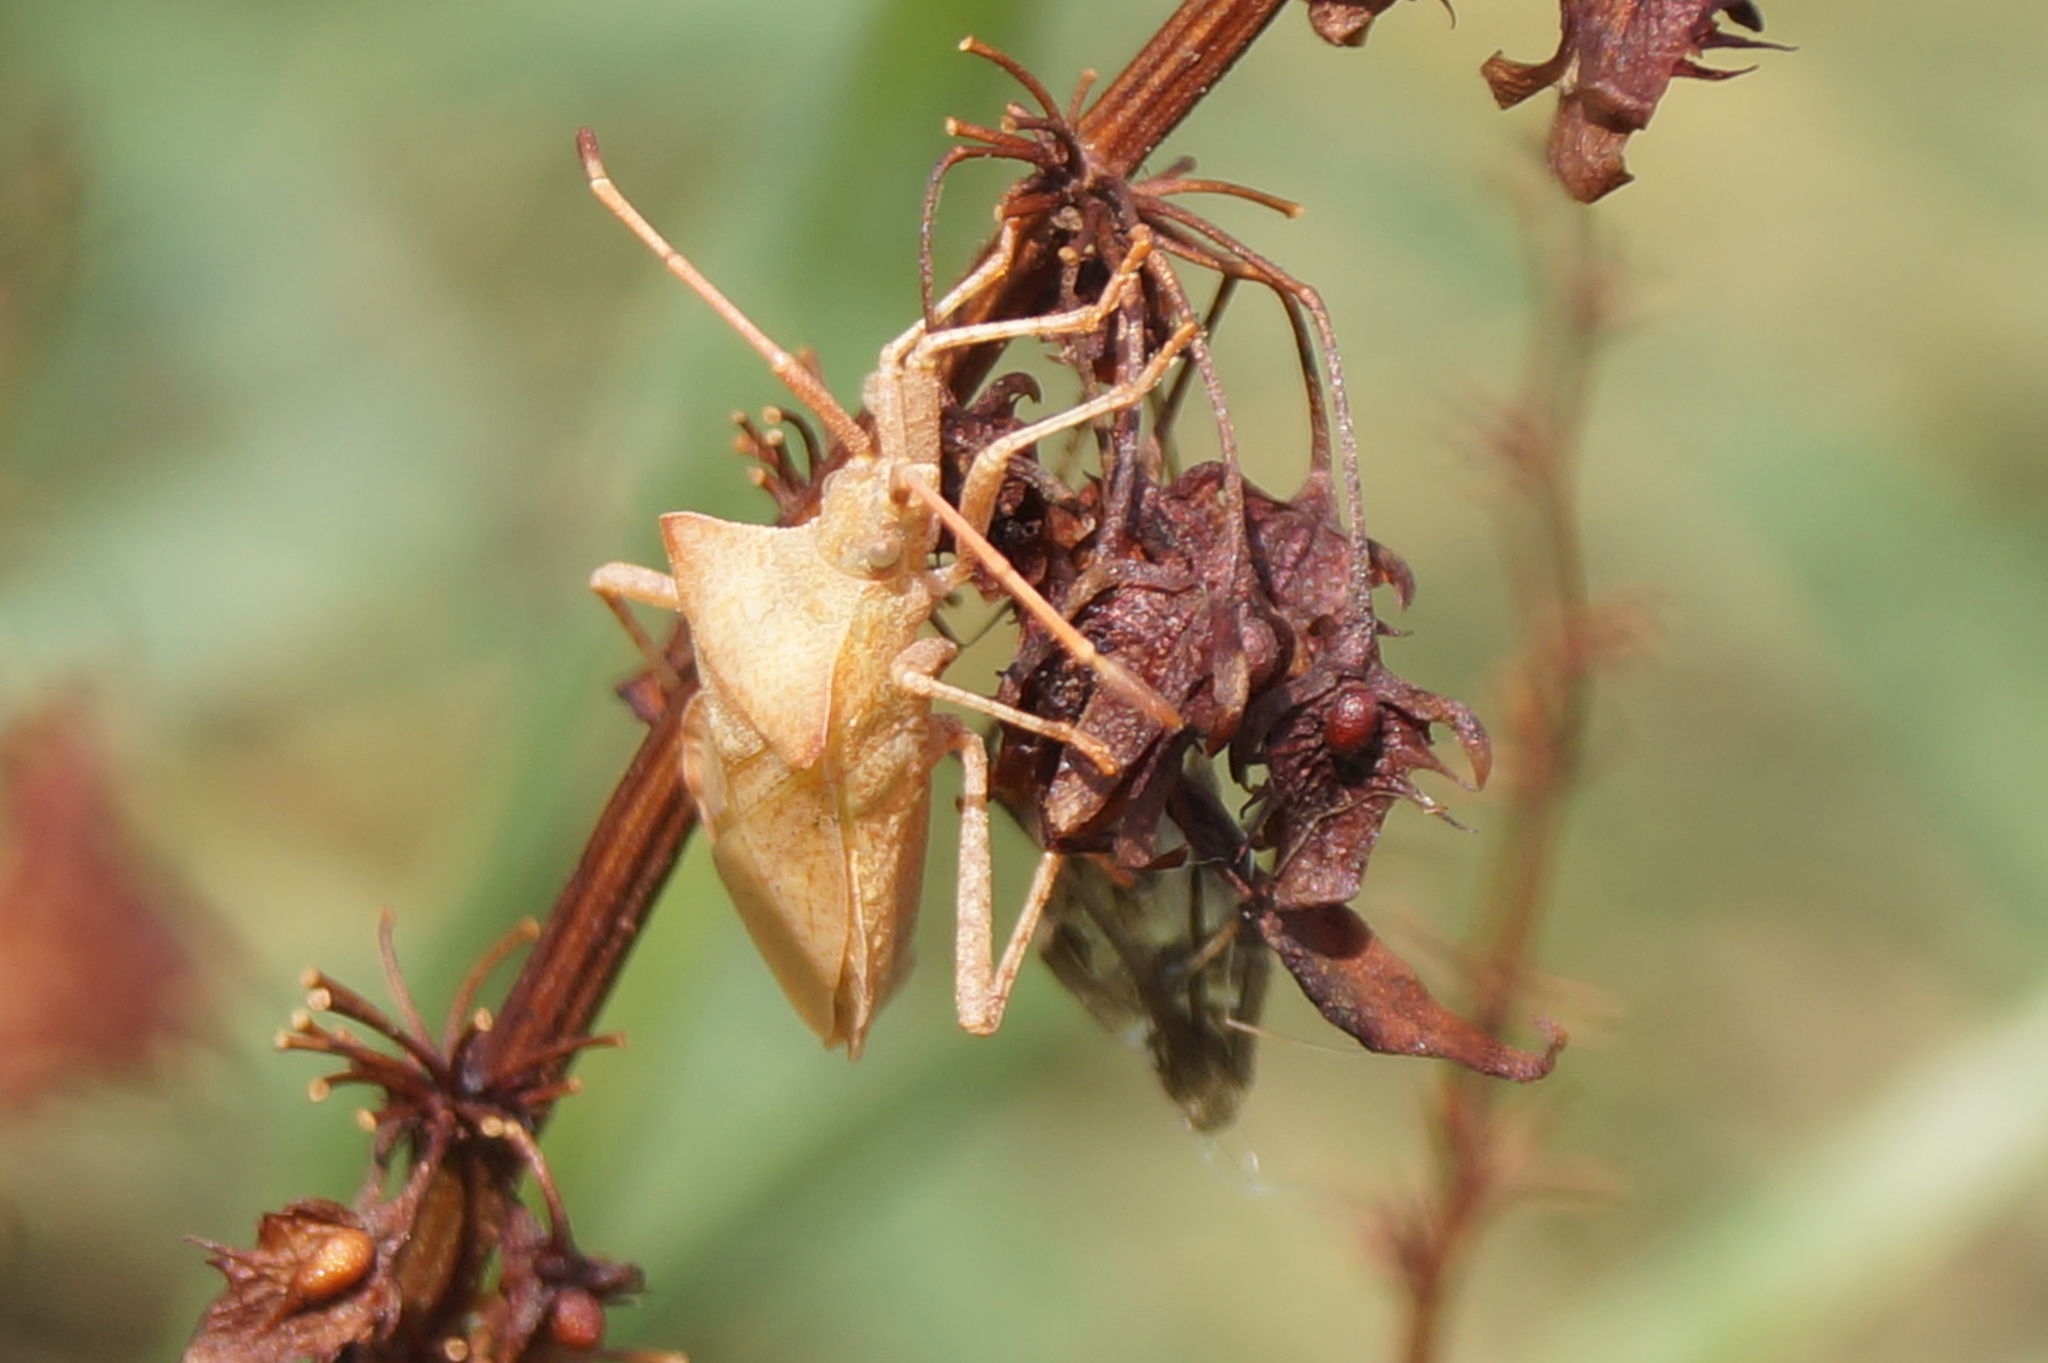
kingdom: Animalia
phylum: Arthropoda
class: Insecta
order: Hemiptera
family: Coreidae
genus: Coreus
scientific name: Coreus marginatus
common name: Dock bug
